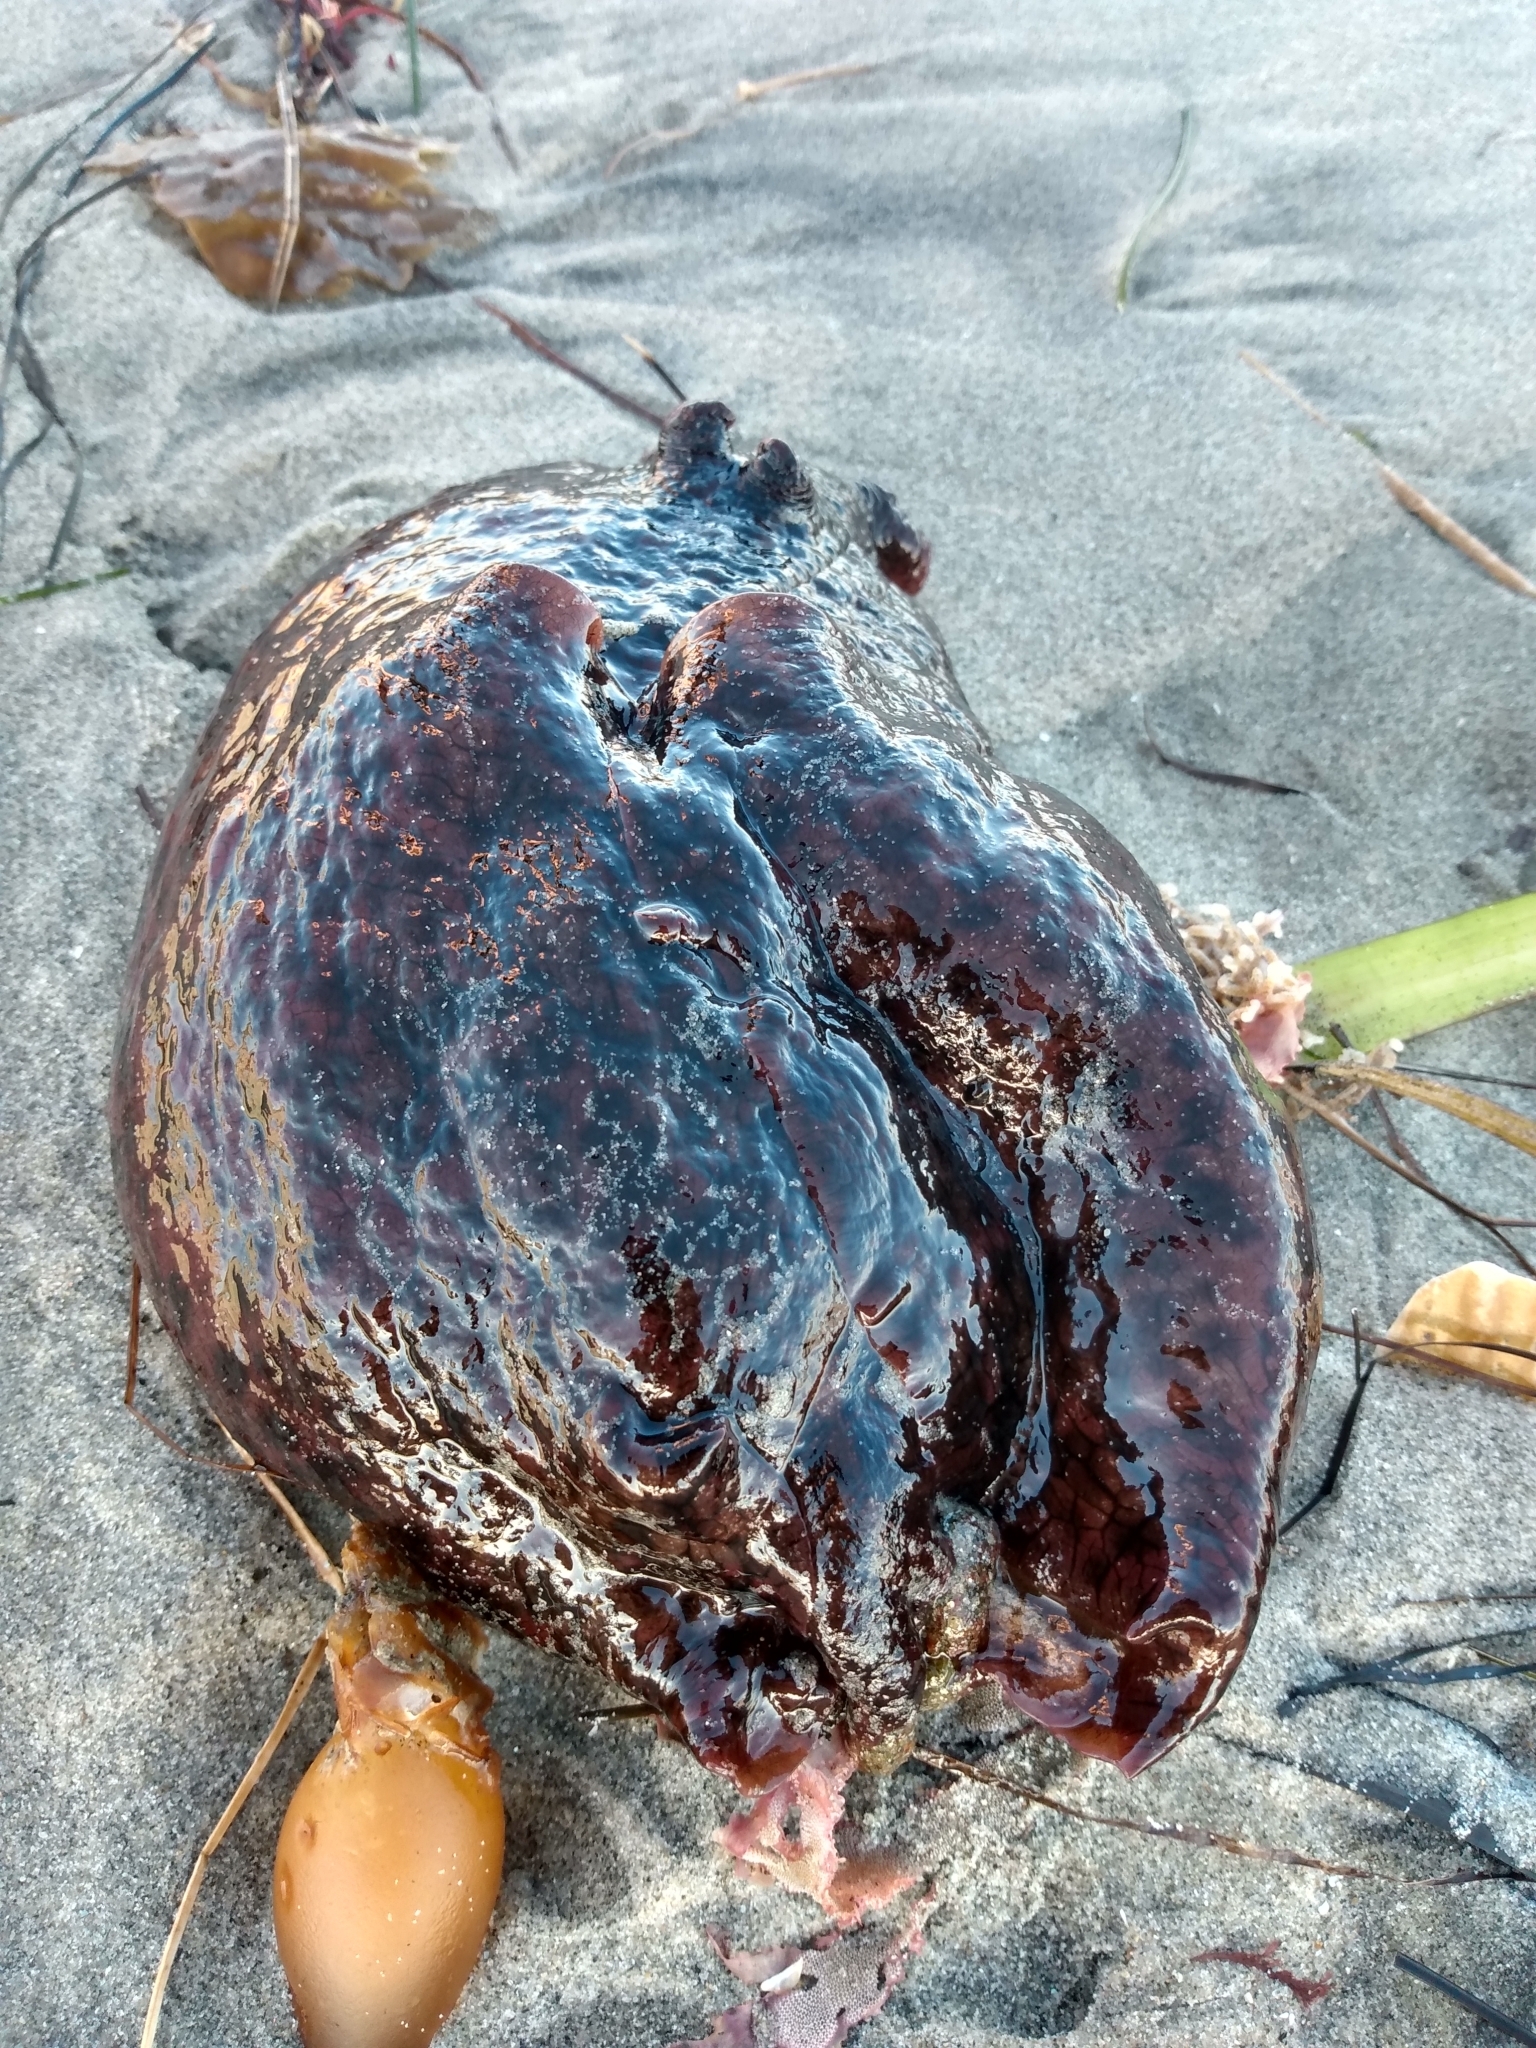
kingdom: Animalia
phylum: Mollusca
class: Gastropoda
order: Aplysiida
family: Aplysiidae
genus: Aplysia
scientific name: Aplysia californica
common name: California seahare
